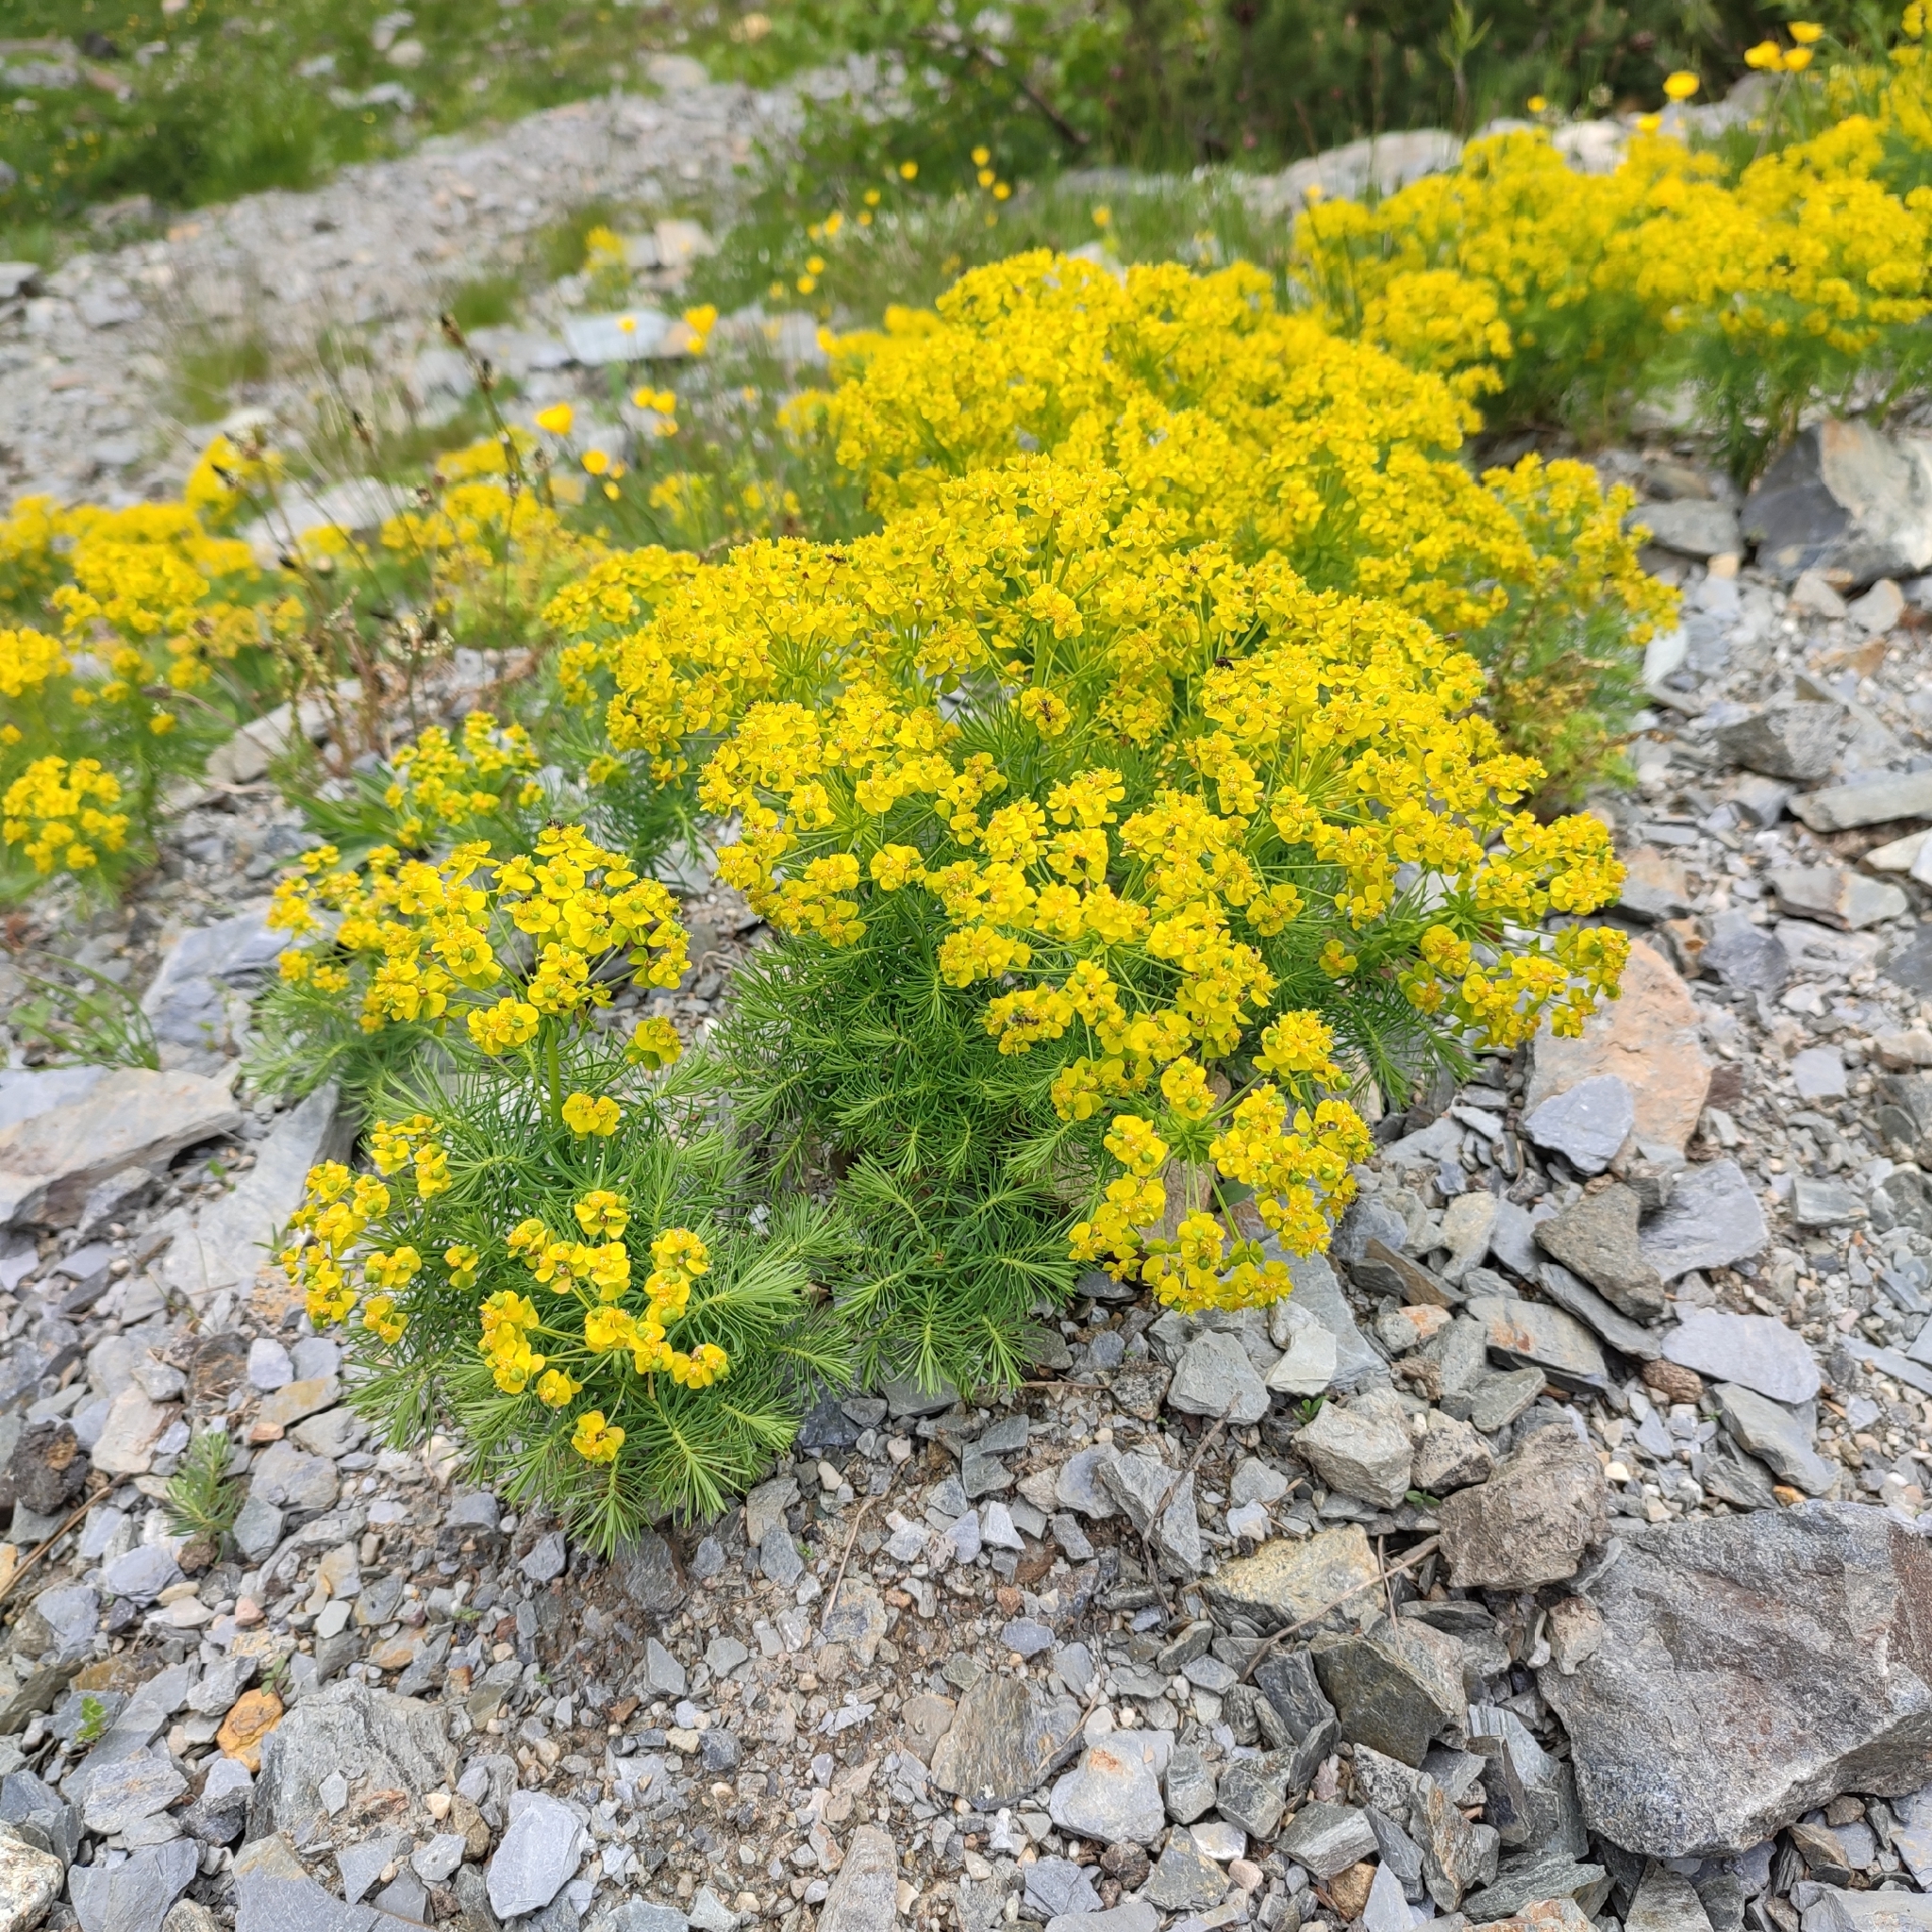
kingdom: Plantae
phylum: Tracheophyta
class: Magnoliopsida
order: Malpighiales
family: Euphorbiaceae
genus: Euphorbia
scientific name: Euphorbia cyparissias
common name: Cypress spurge
